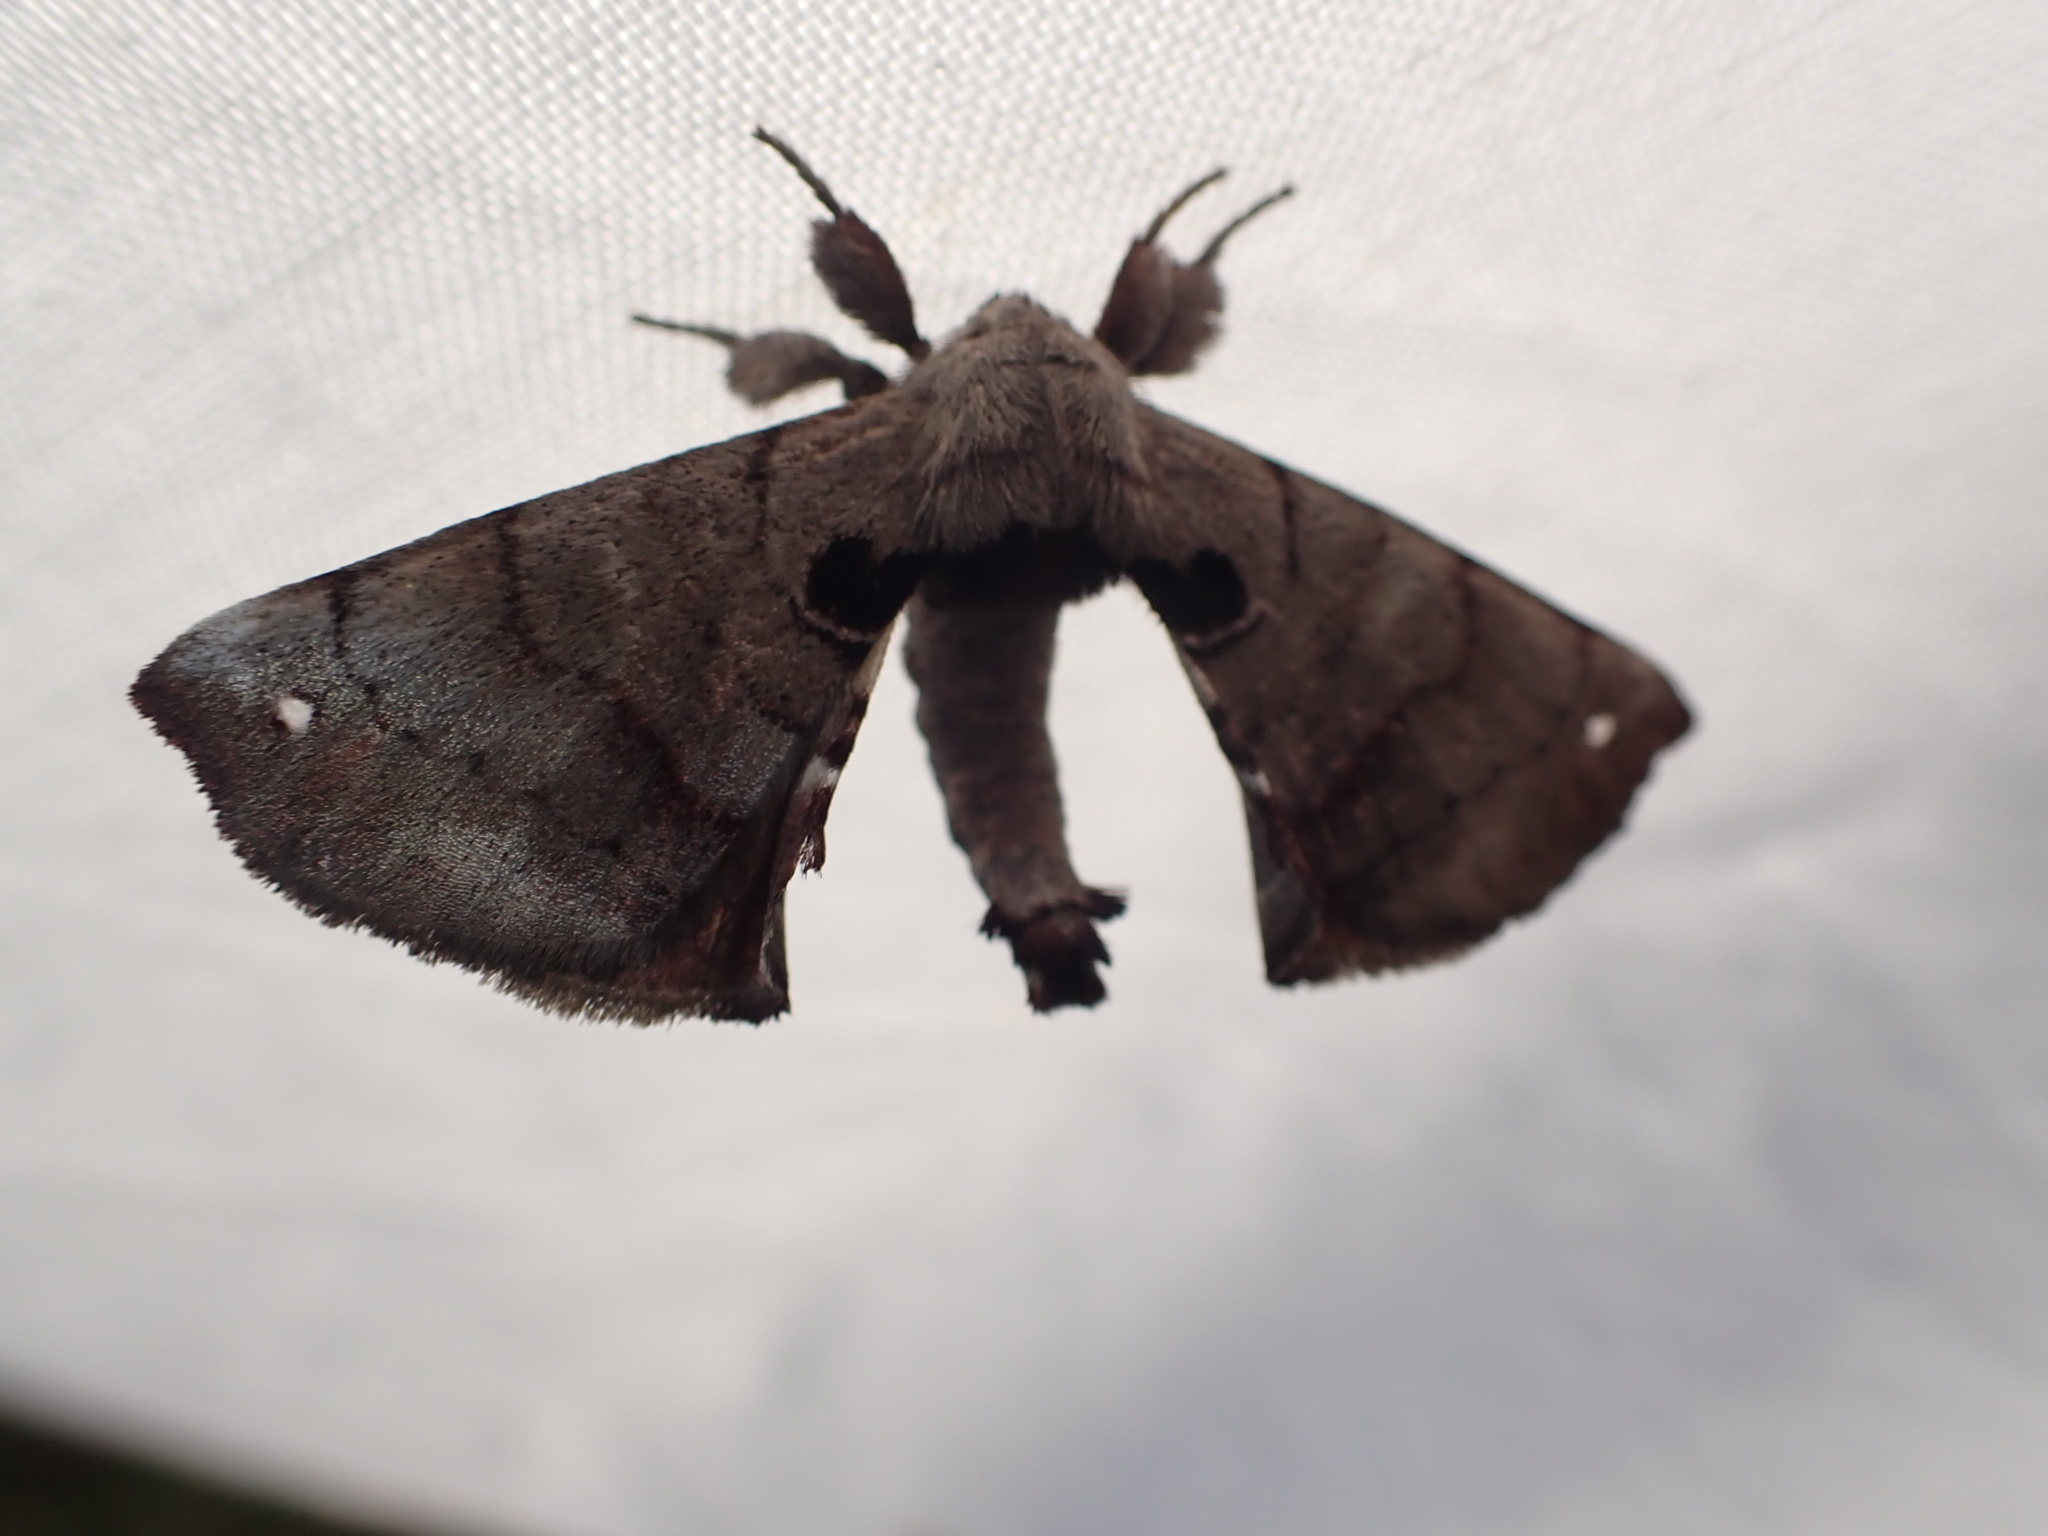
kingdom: Animalia
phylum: Arthropoda
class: Insecta
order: Lepidoptera
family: Apatelodidae
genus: Hygrochroa
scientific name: Hygrochroa Apatelodes torrefacta
